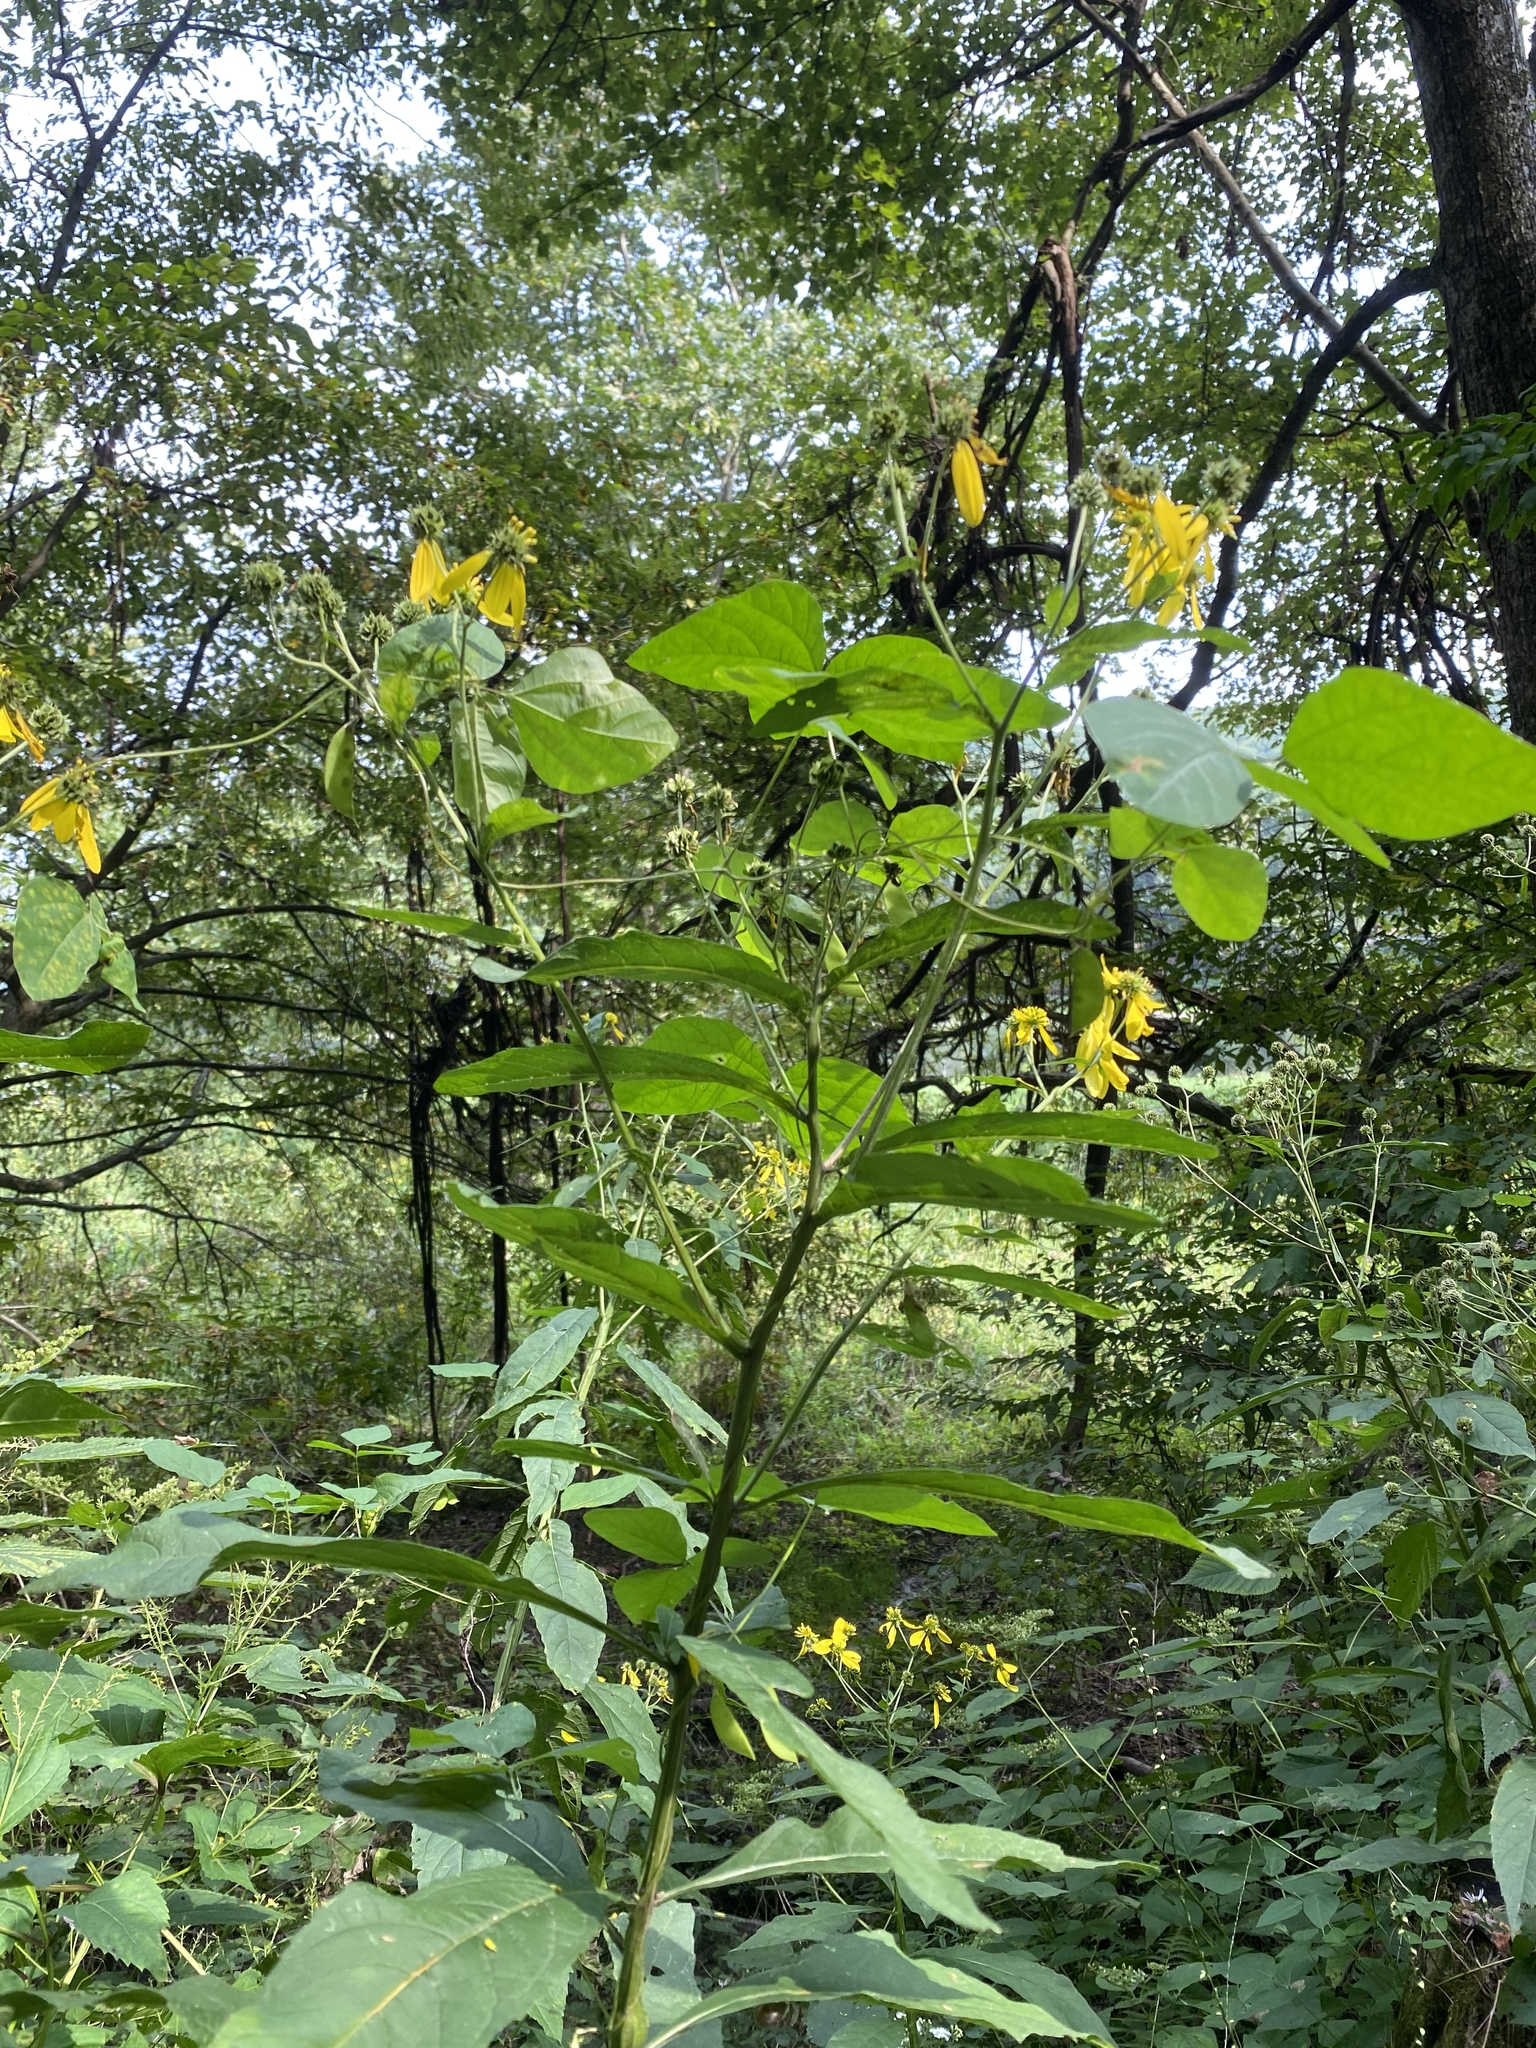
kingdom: Plantae
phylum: Tracheophyta
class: Magnoliopsida
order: Asterales
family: Asteraceae
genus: Verbesina
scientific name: Verbesina alternifolia
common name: Wingstem
